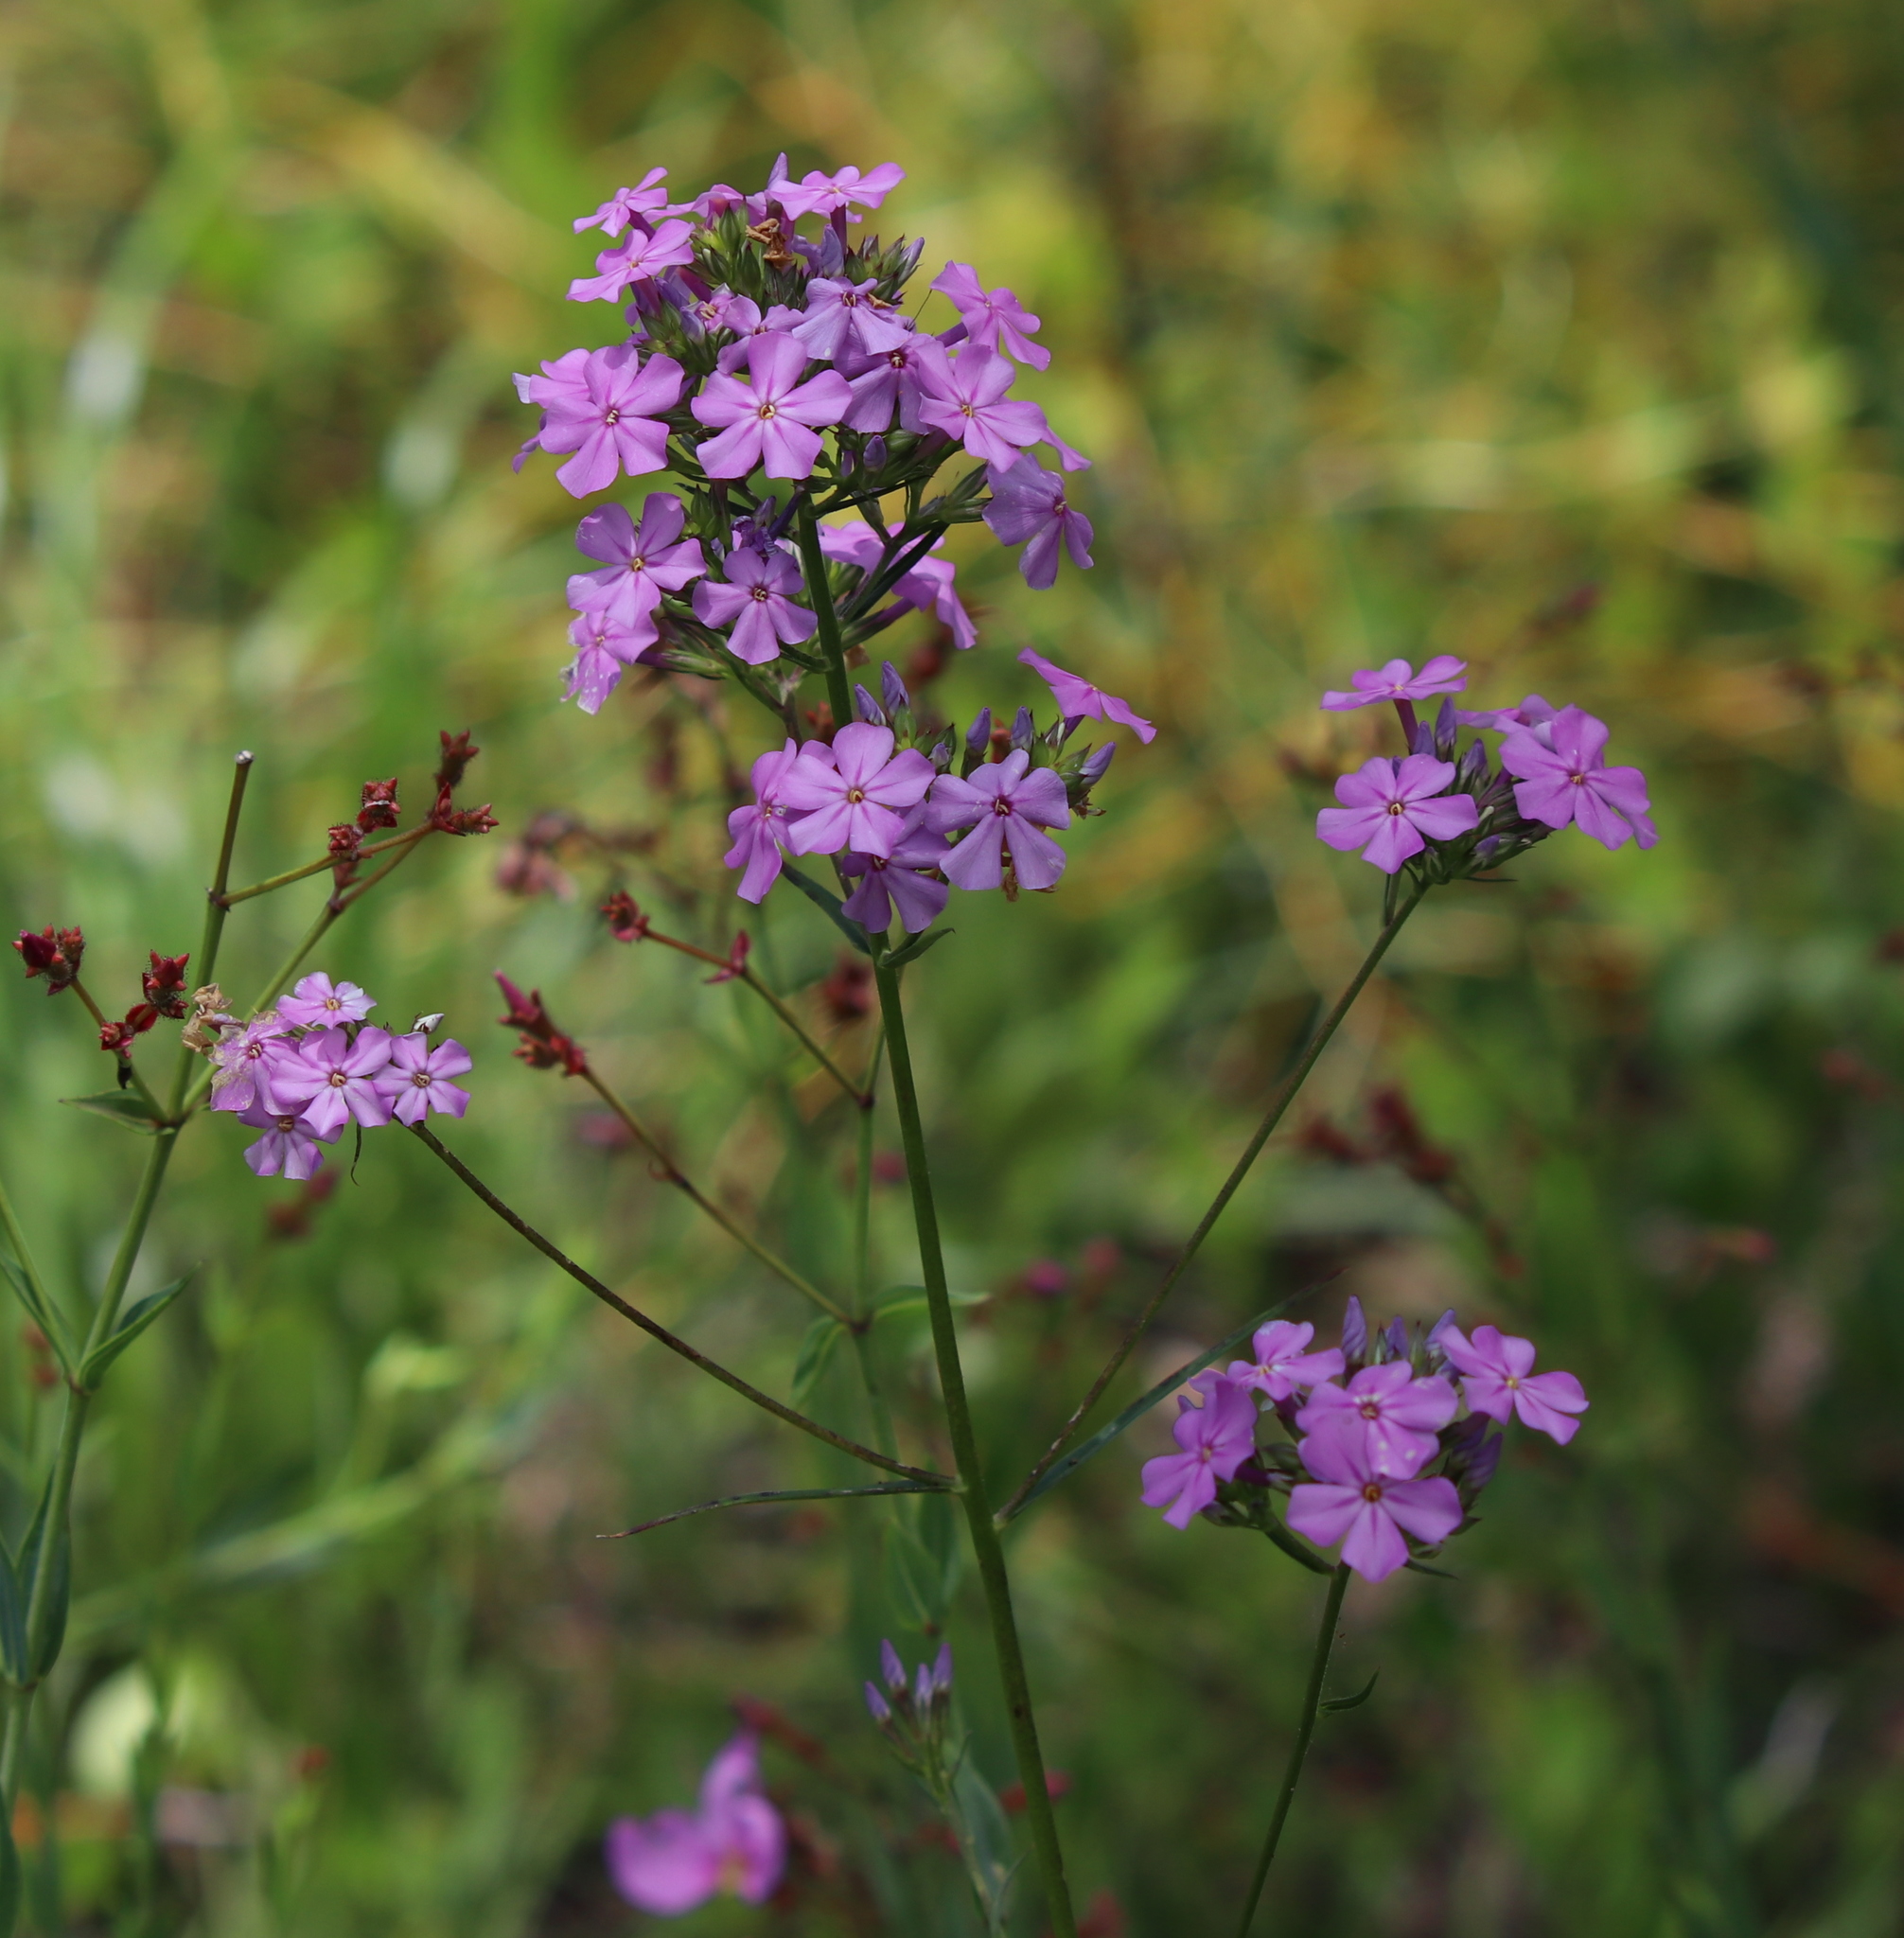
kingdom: Plantae
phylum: Tracheophyta
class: Magnoliopsida
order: Ericales
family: Polemoniaceae
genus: Phlox
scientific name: Phlox carolina
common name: Thick-leaf phlox
